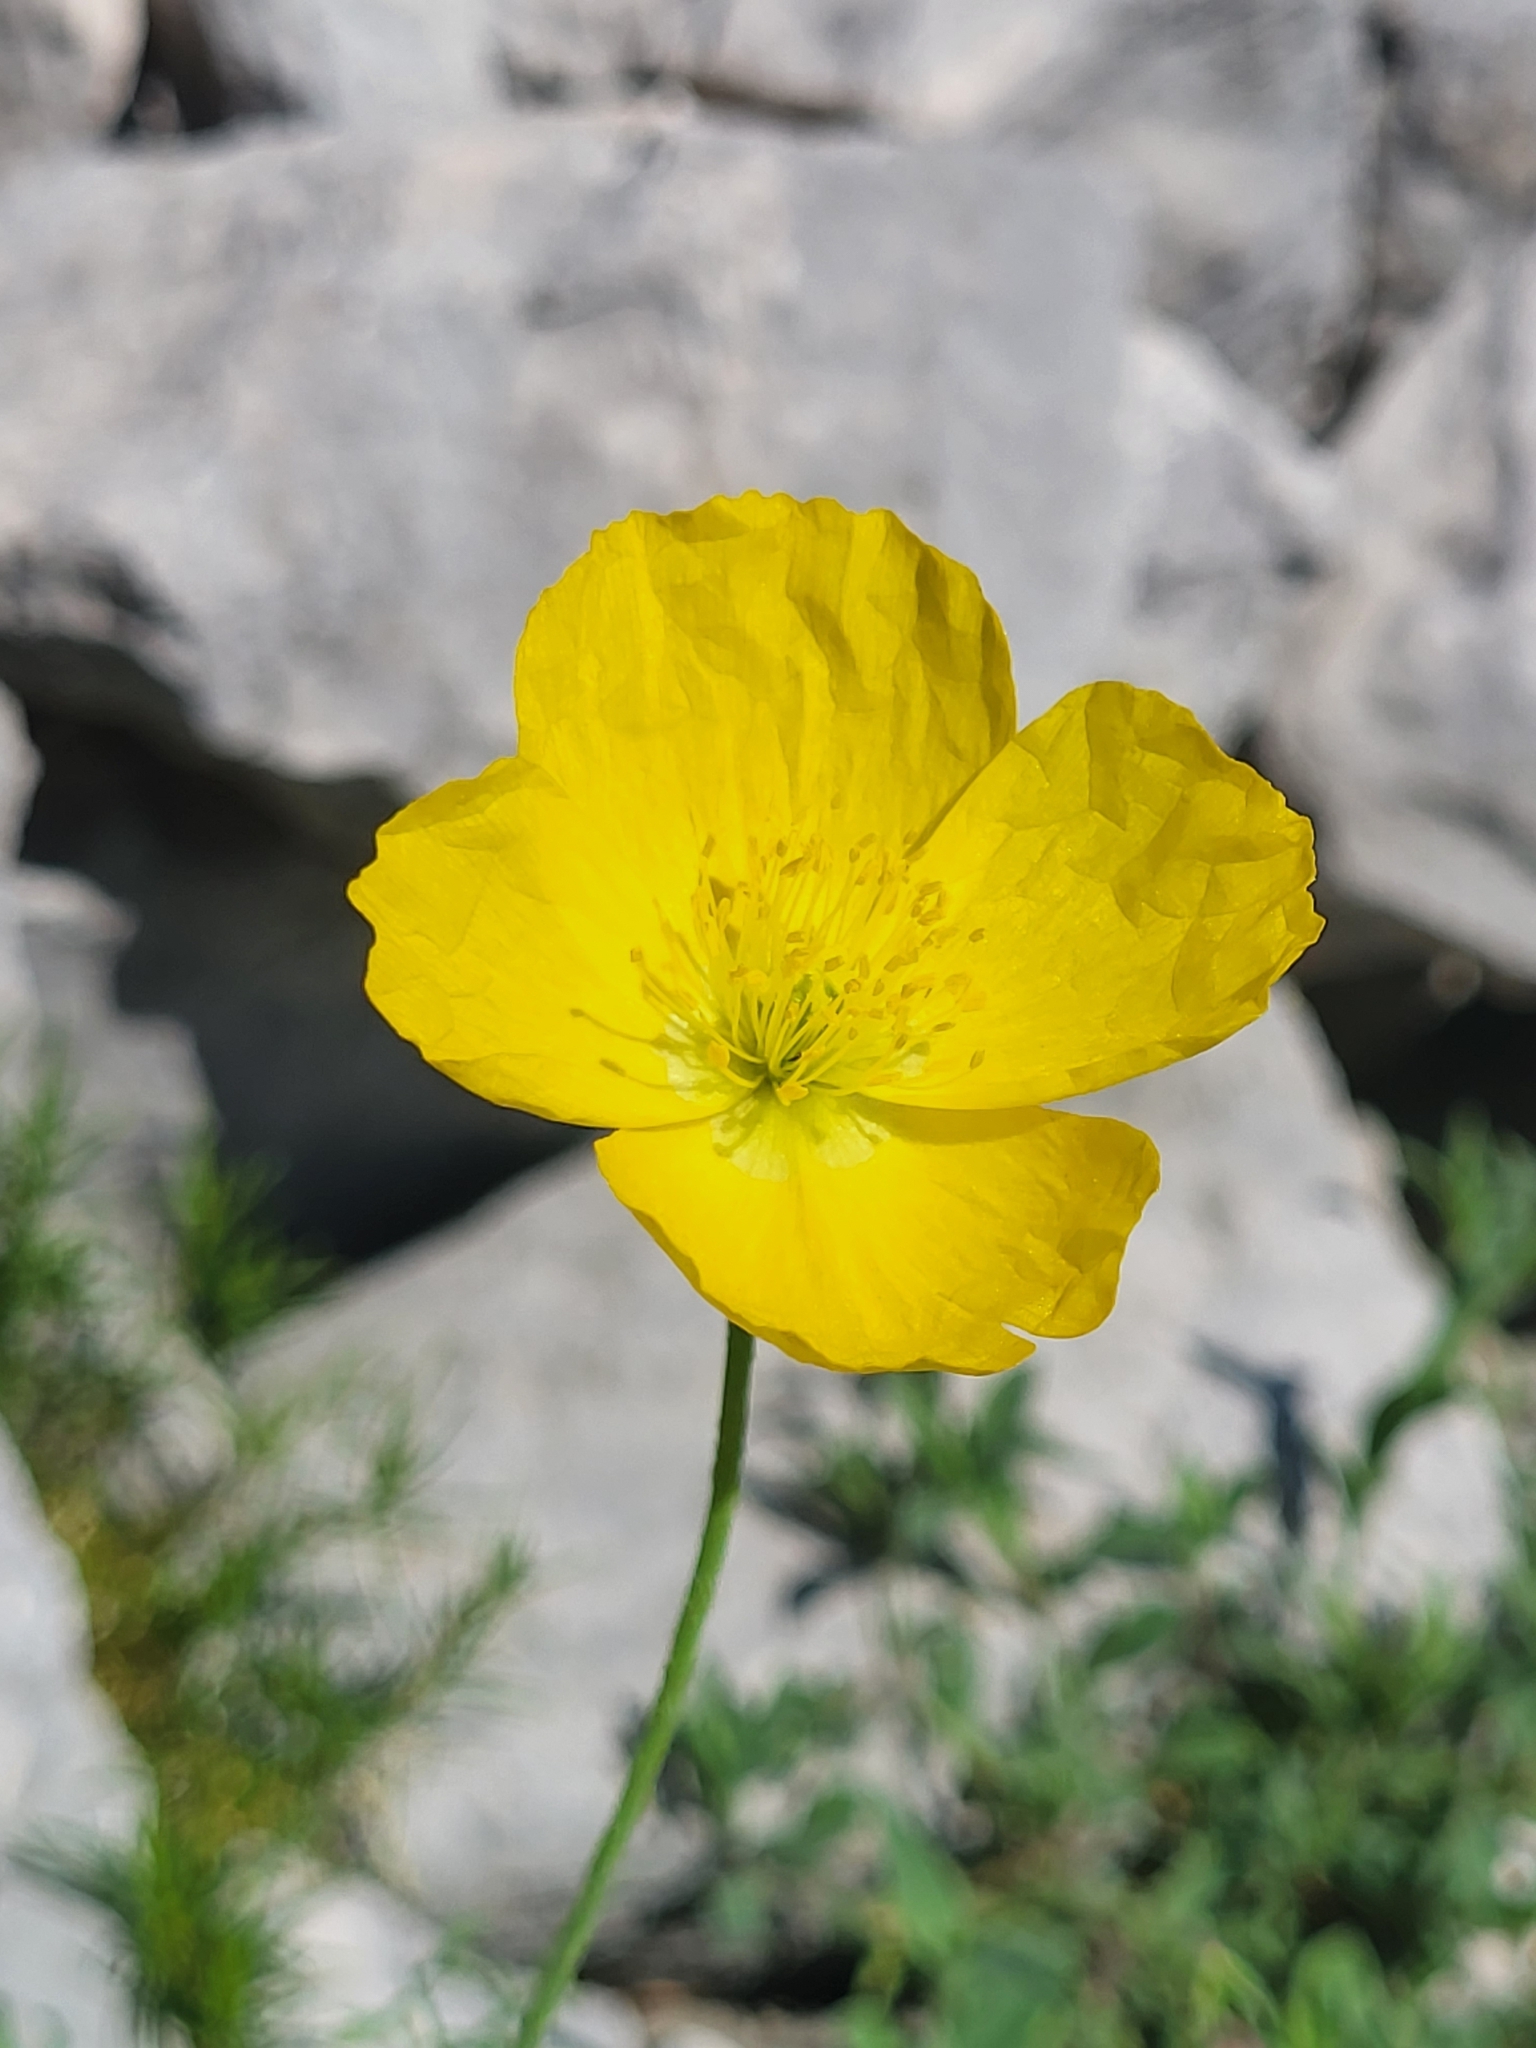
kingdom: Plantae
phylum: Tracheophyta
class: Magnoliopsida
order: Ranunculales
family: Papaveraceae
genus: Papaver
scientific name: Papaver alpinum
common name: Austrian poppy
